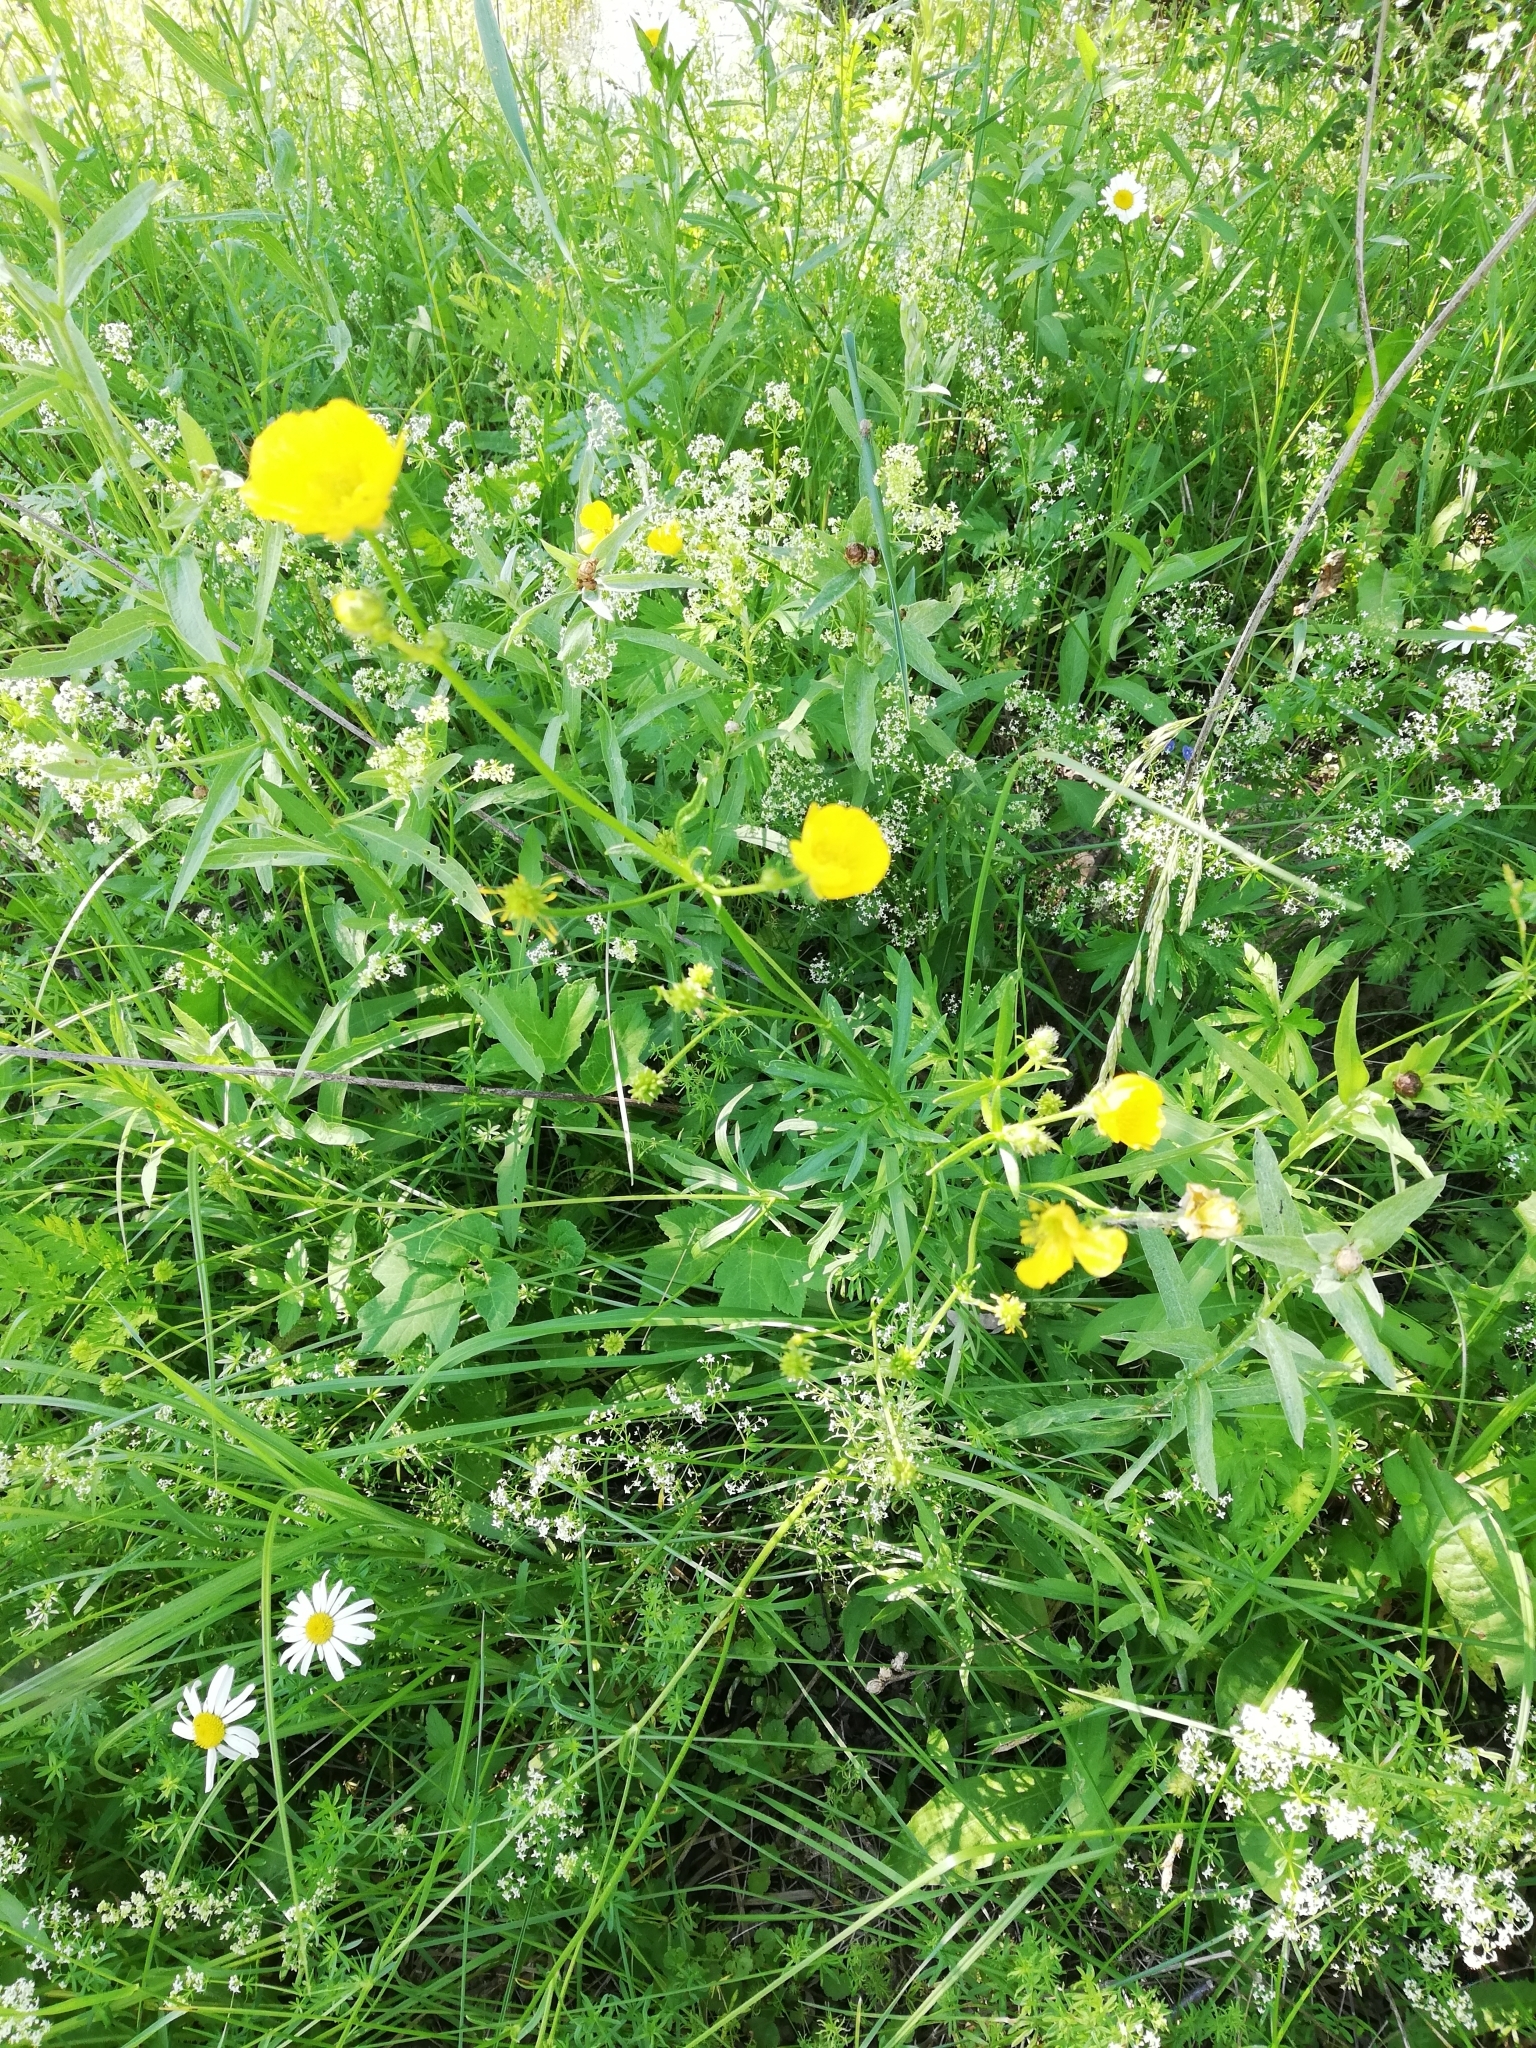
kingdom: Plantae
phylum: Tracheophyta
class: Magnoliopsida
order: Ranunculales
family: Ranunculaceae
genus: Ranunculus
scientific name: Ranunculus polyanthemos
